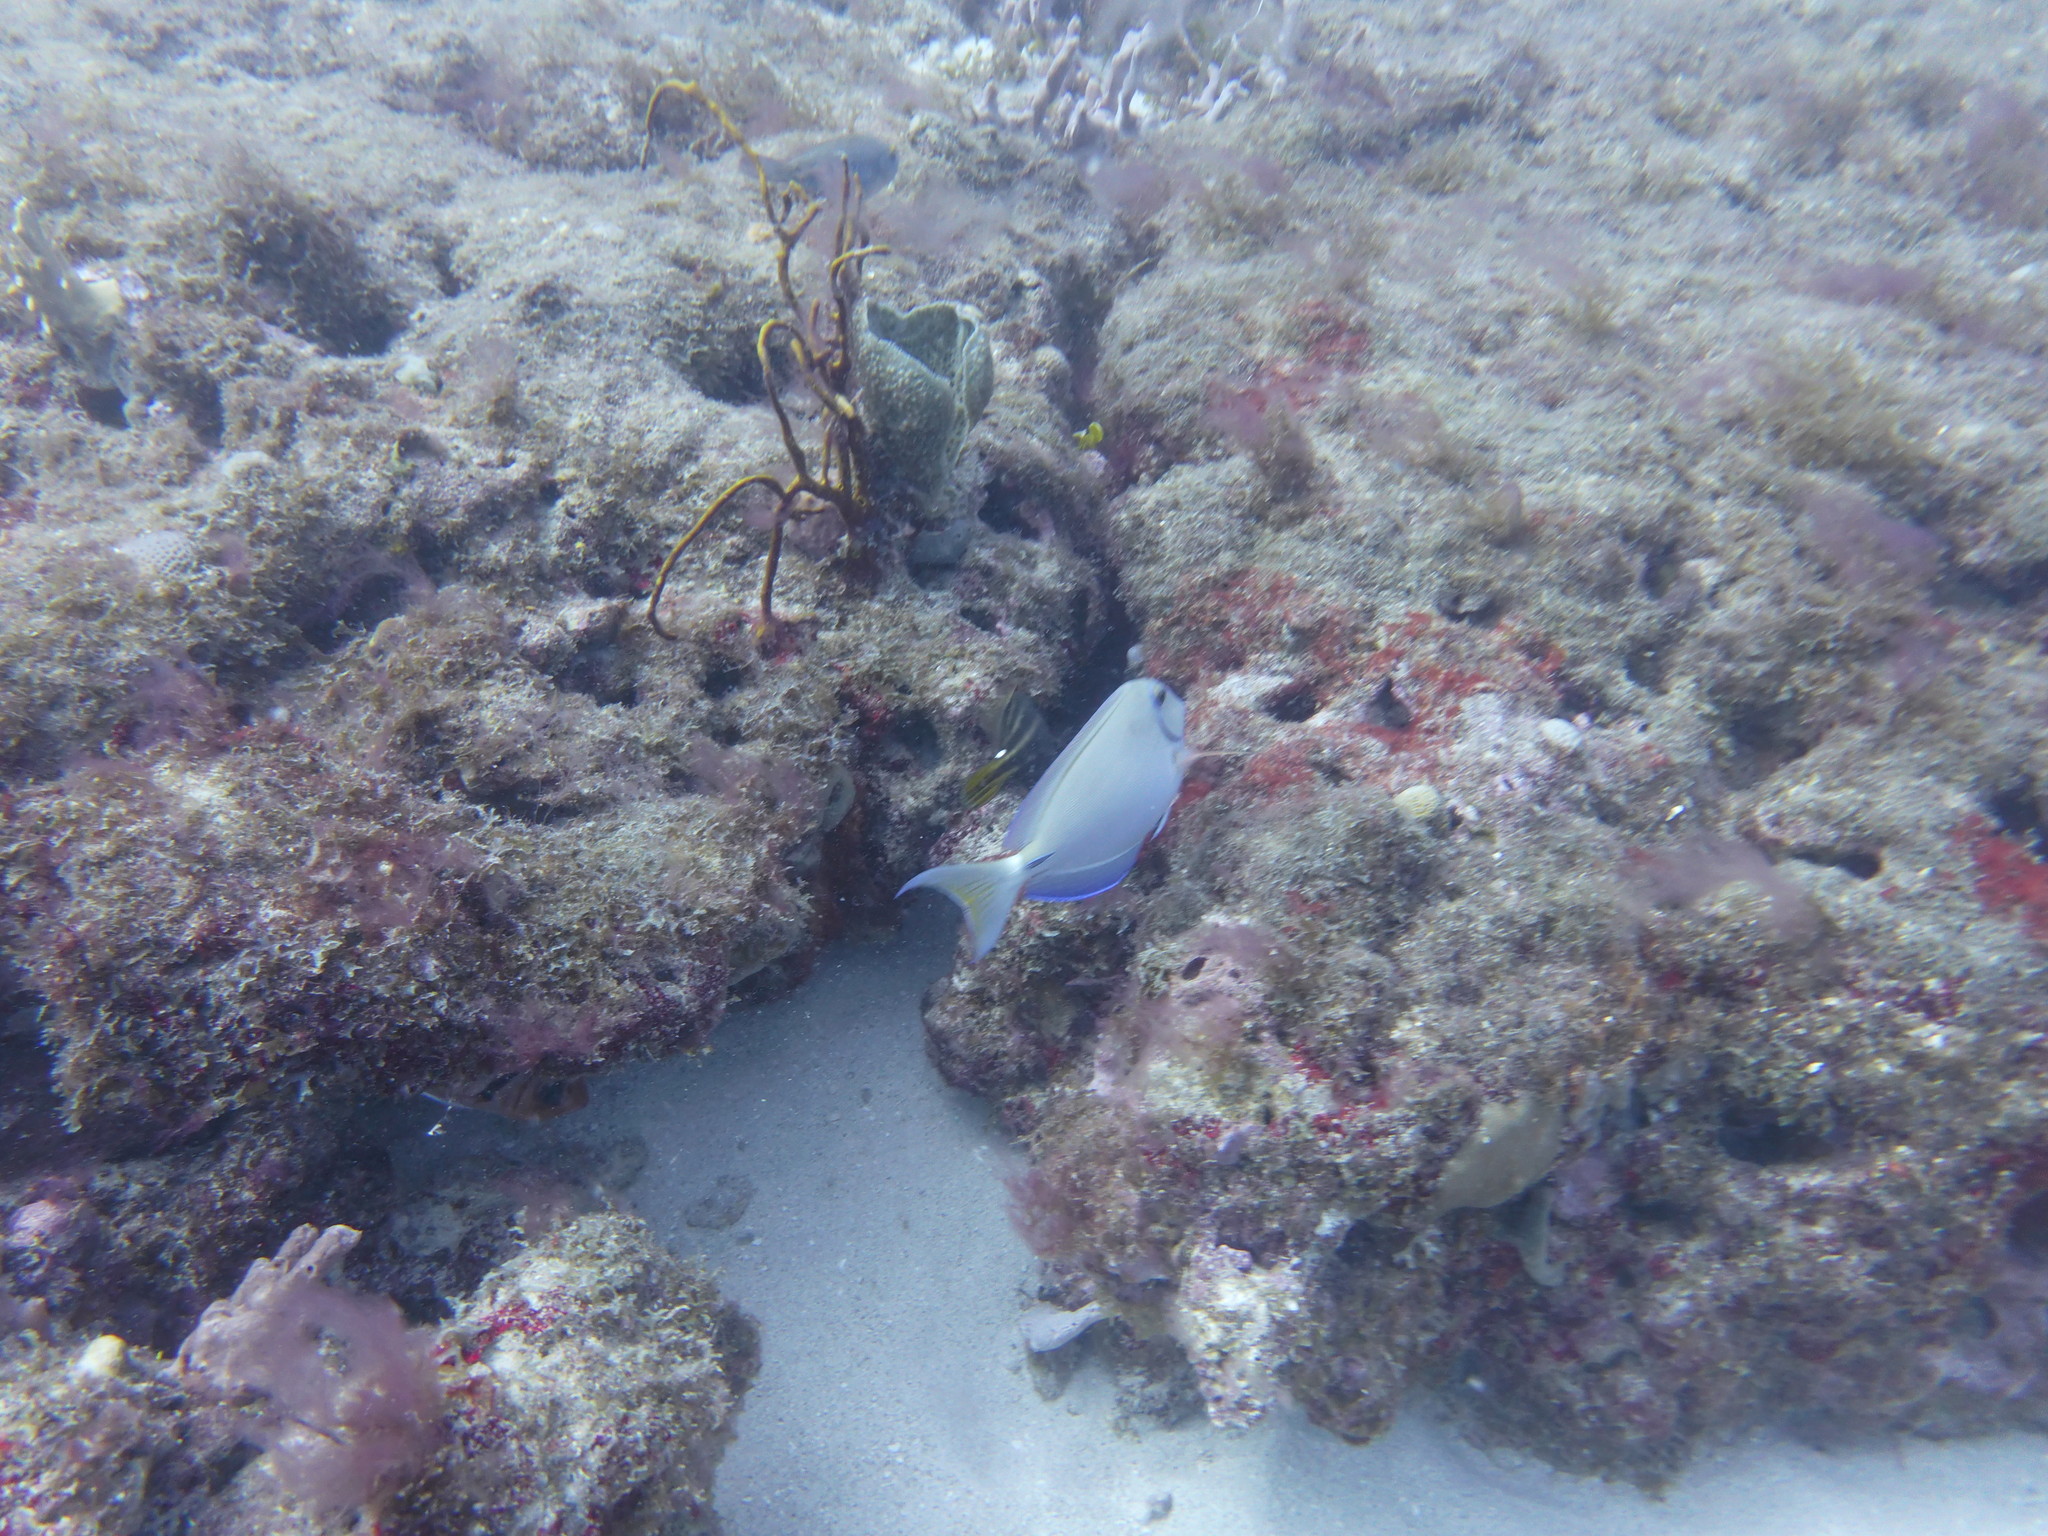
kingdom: Animalia
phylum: Chordata
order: Perciformes
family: Acanthuridae
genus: Acanthurus
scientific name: Acanthurus bahianus
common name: Ocean surgeon
